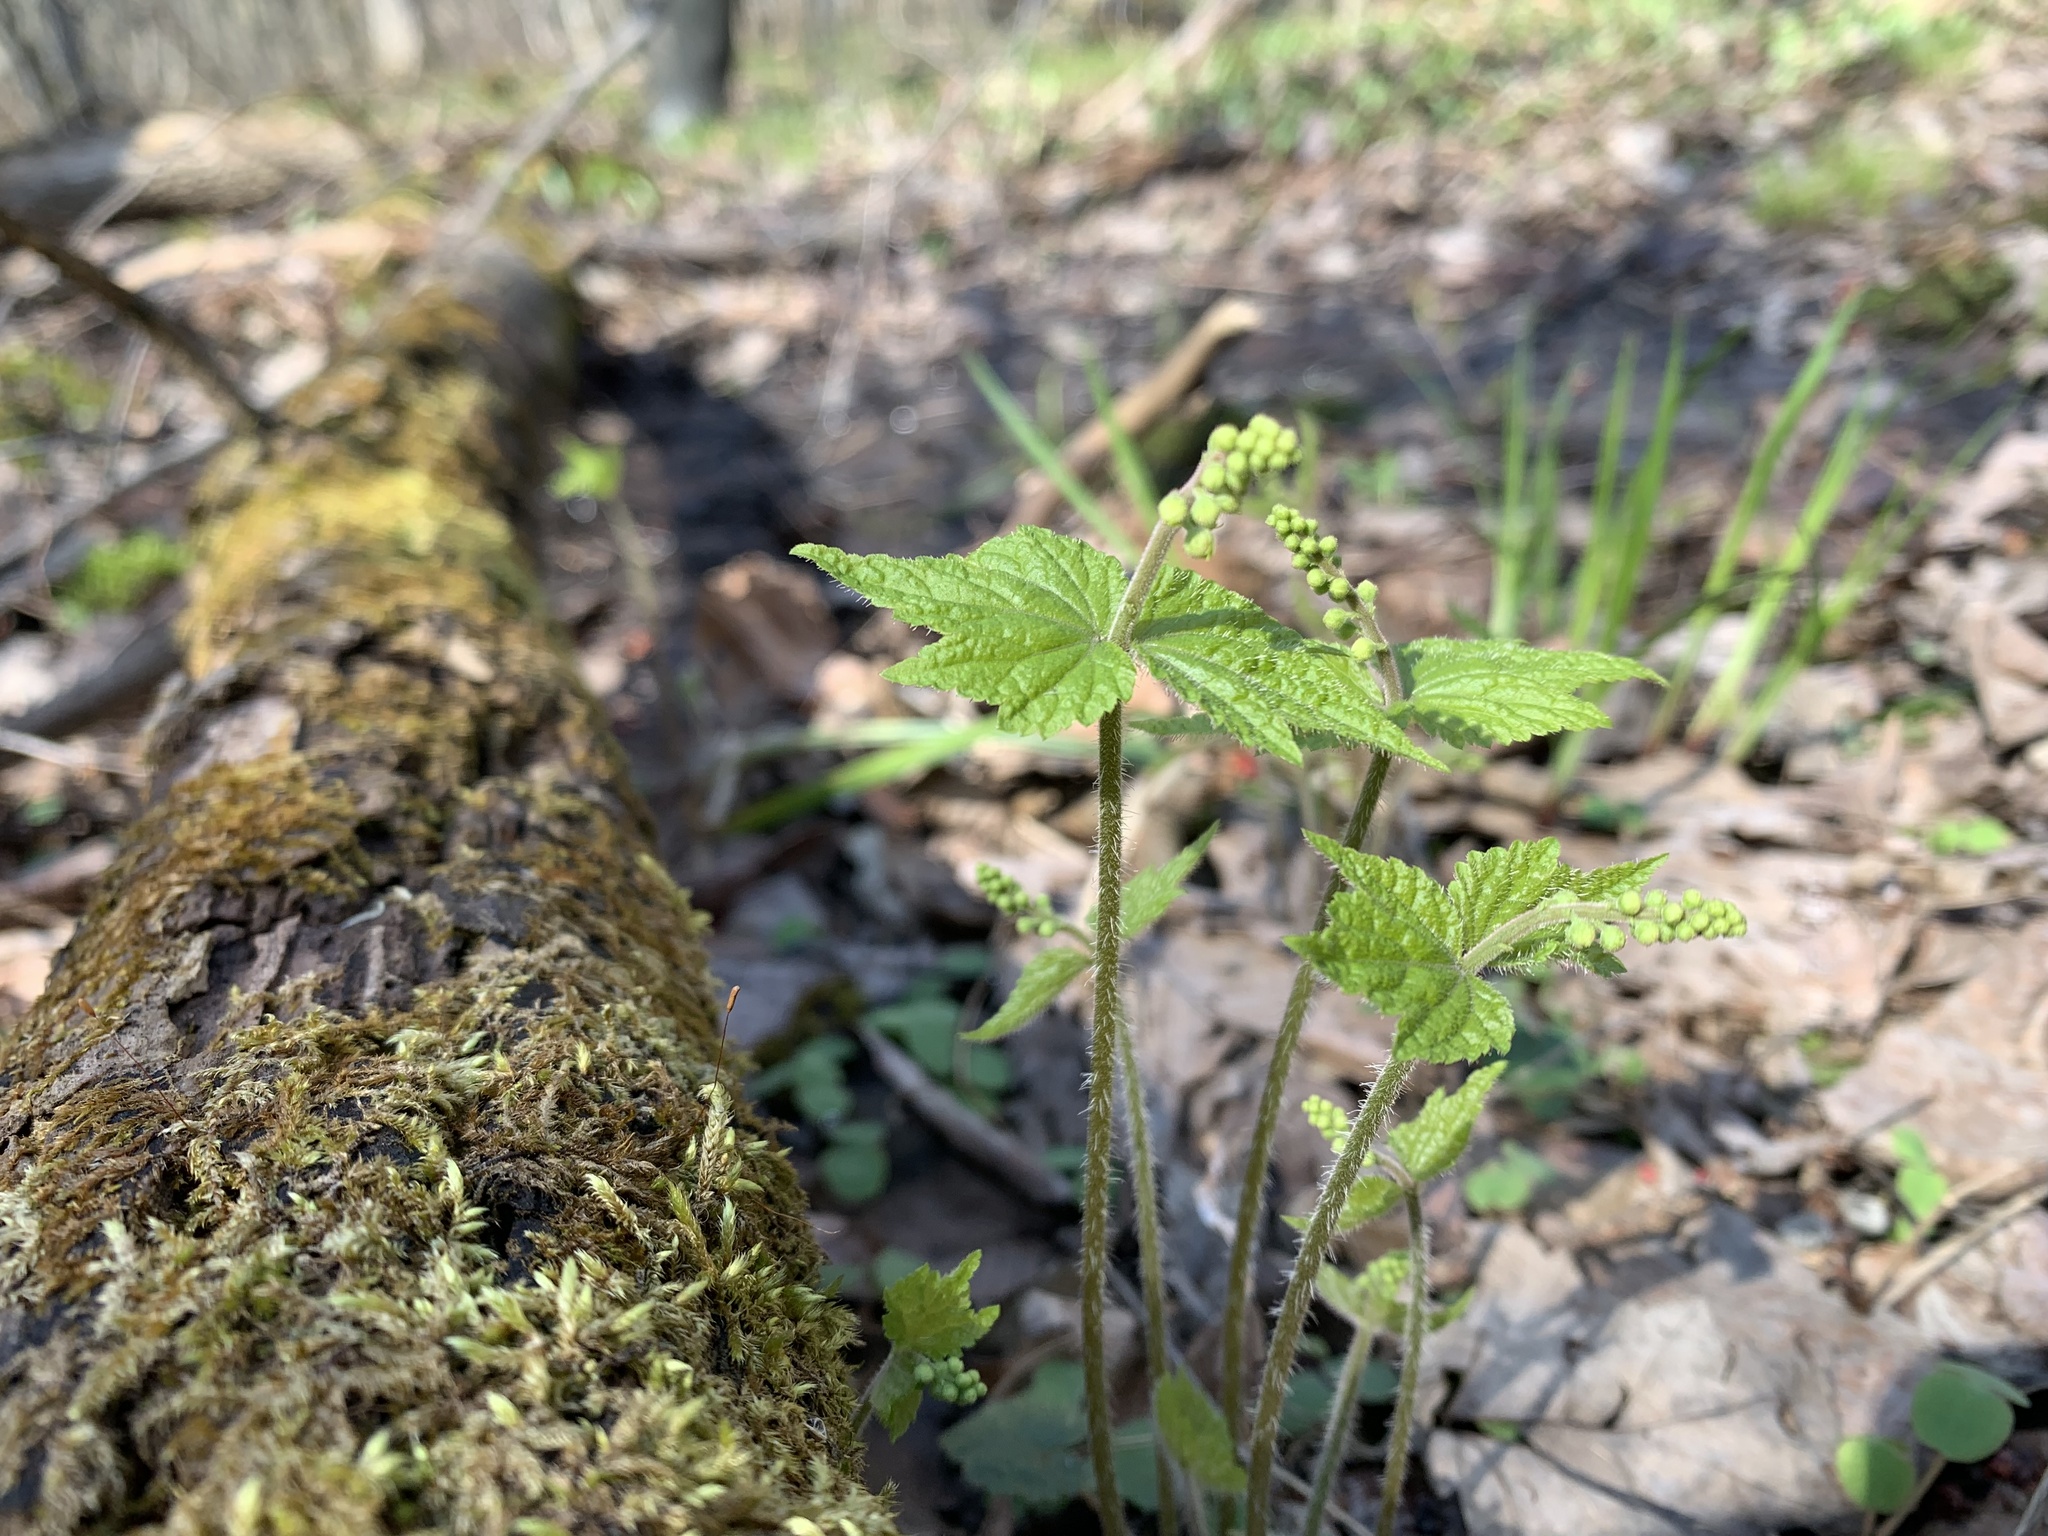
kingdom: Plantae
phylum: Tracheophyta
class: Magnoliopsida
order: Saxifragales
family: Saxifragaceae
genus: Mitella
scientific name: Mitella diphylla
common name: Coolwort
